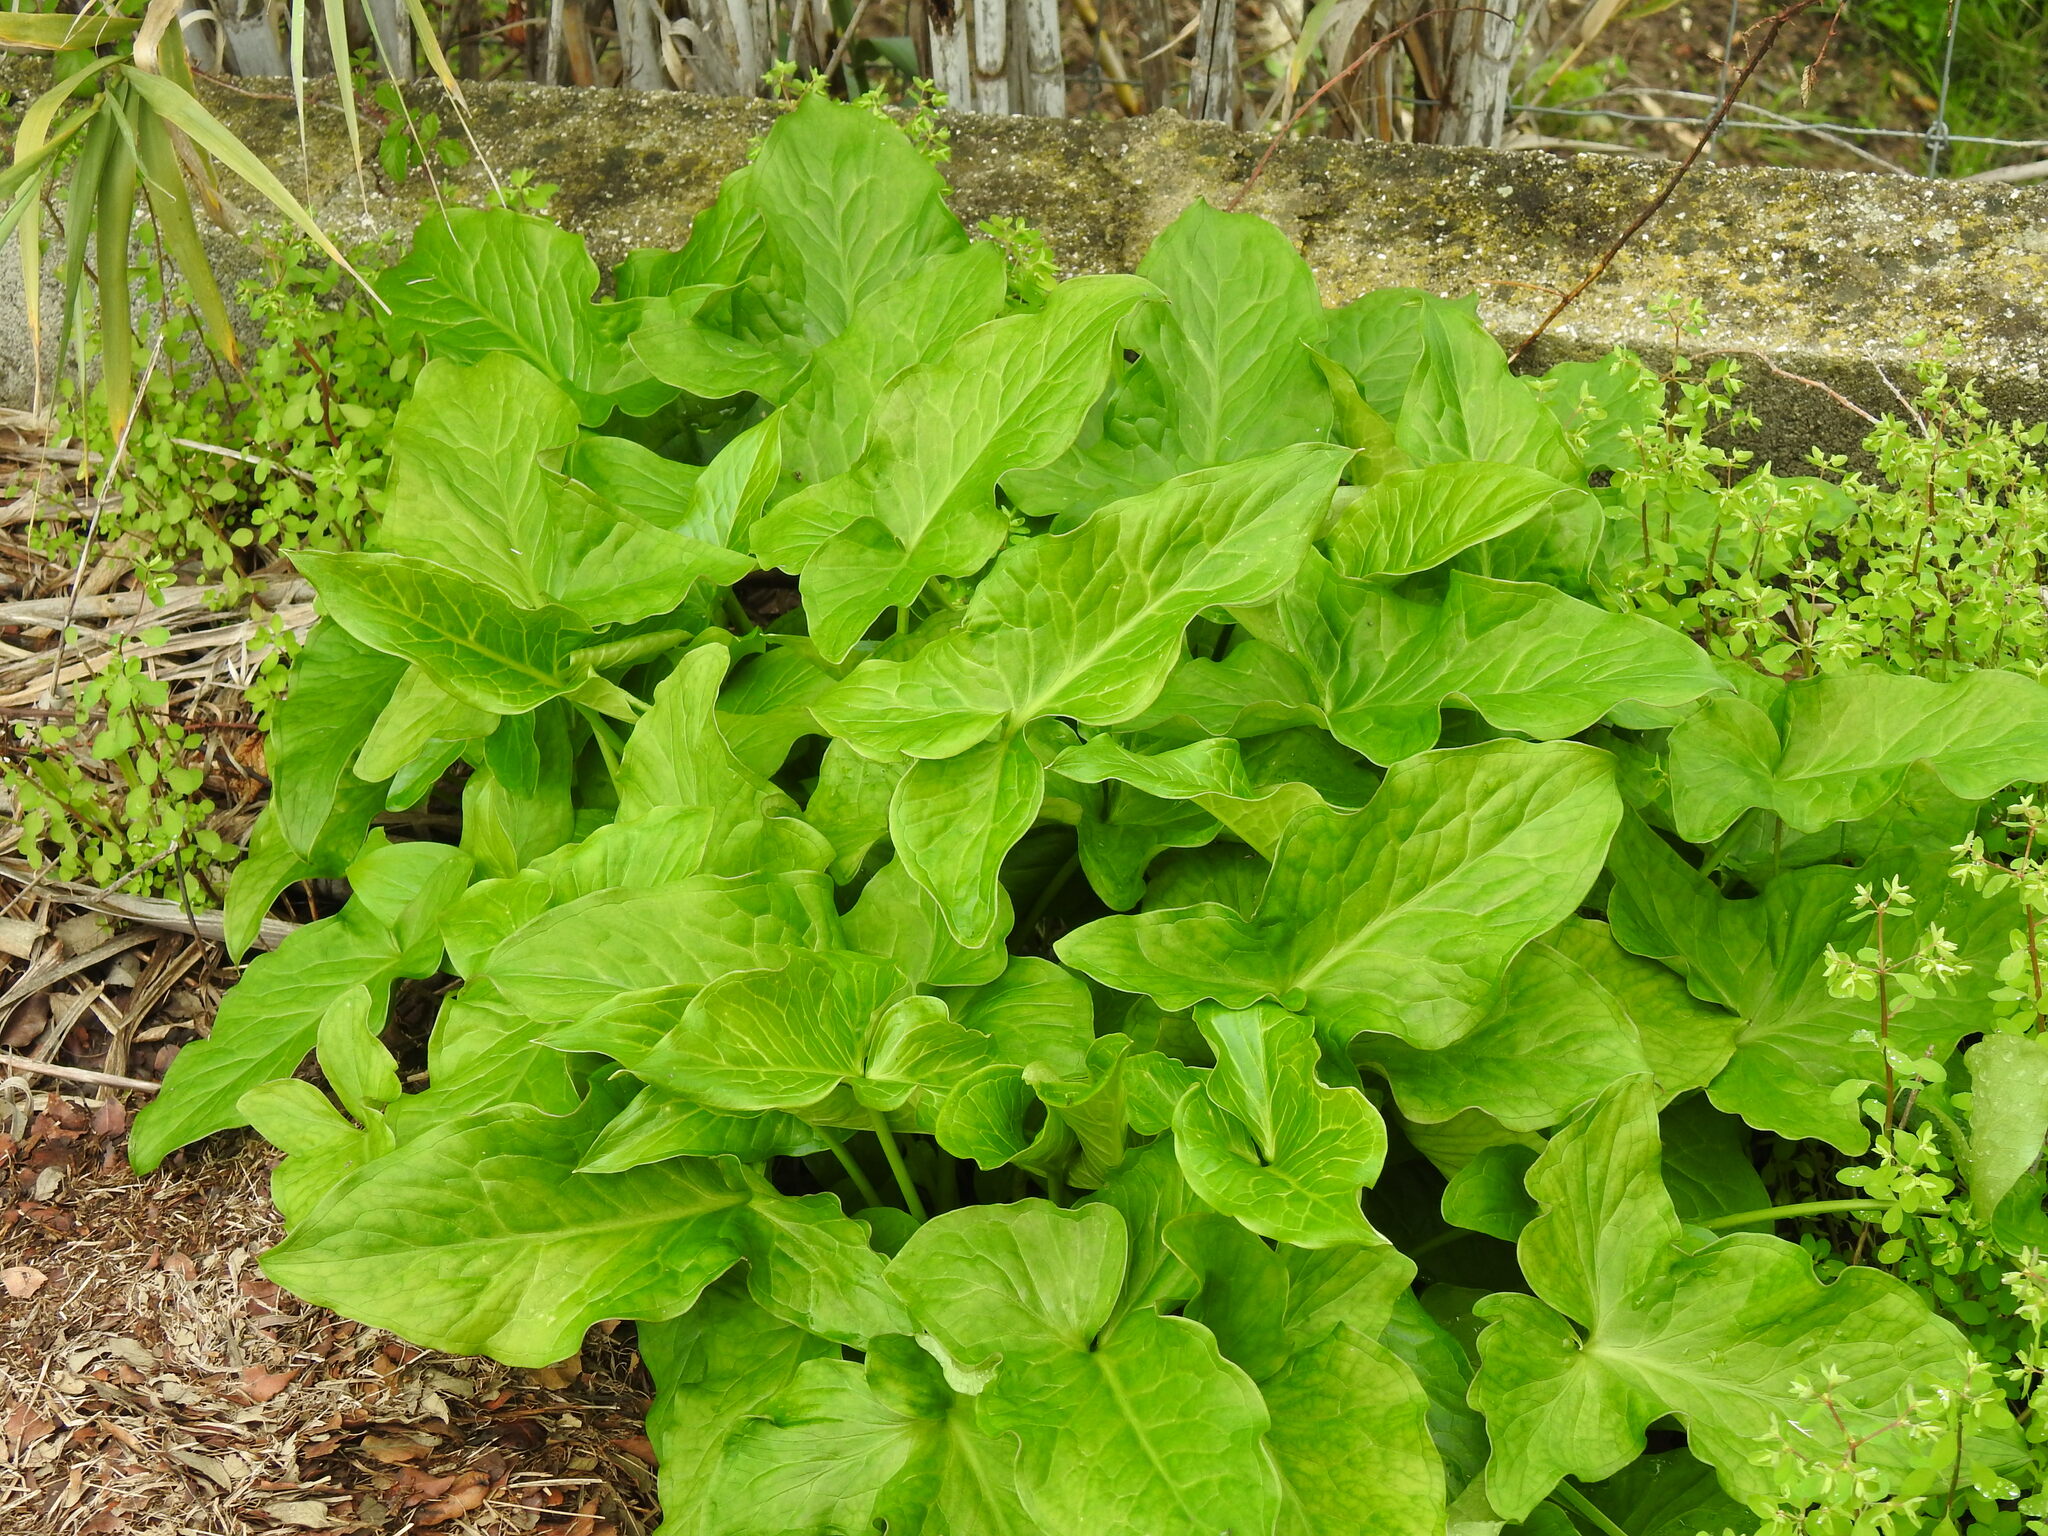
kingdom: Plantae
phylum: Tracheophyta
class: Liliopsida
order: Alismatales
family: Araceae
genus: Arum
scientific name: Arum italicum
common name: Italian lords-and-ladies
